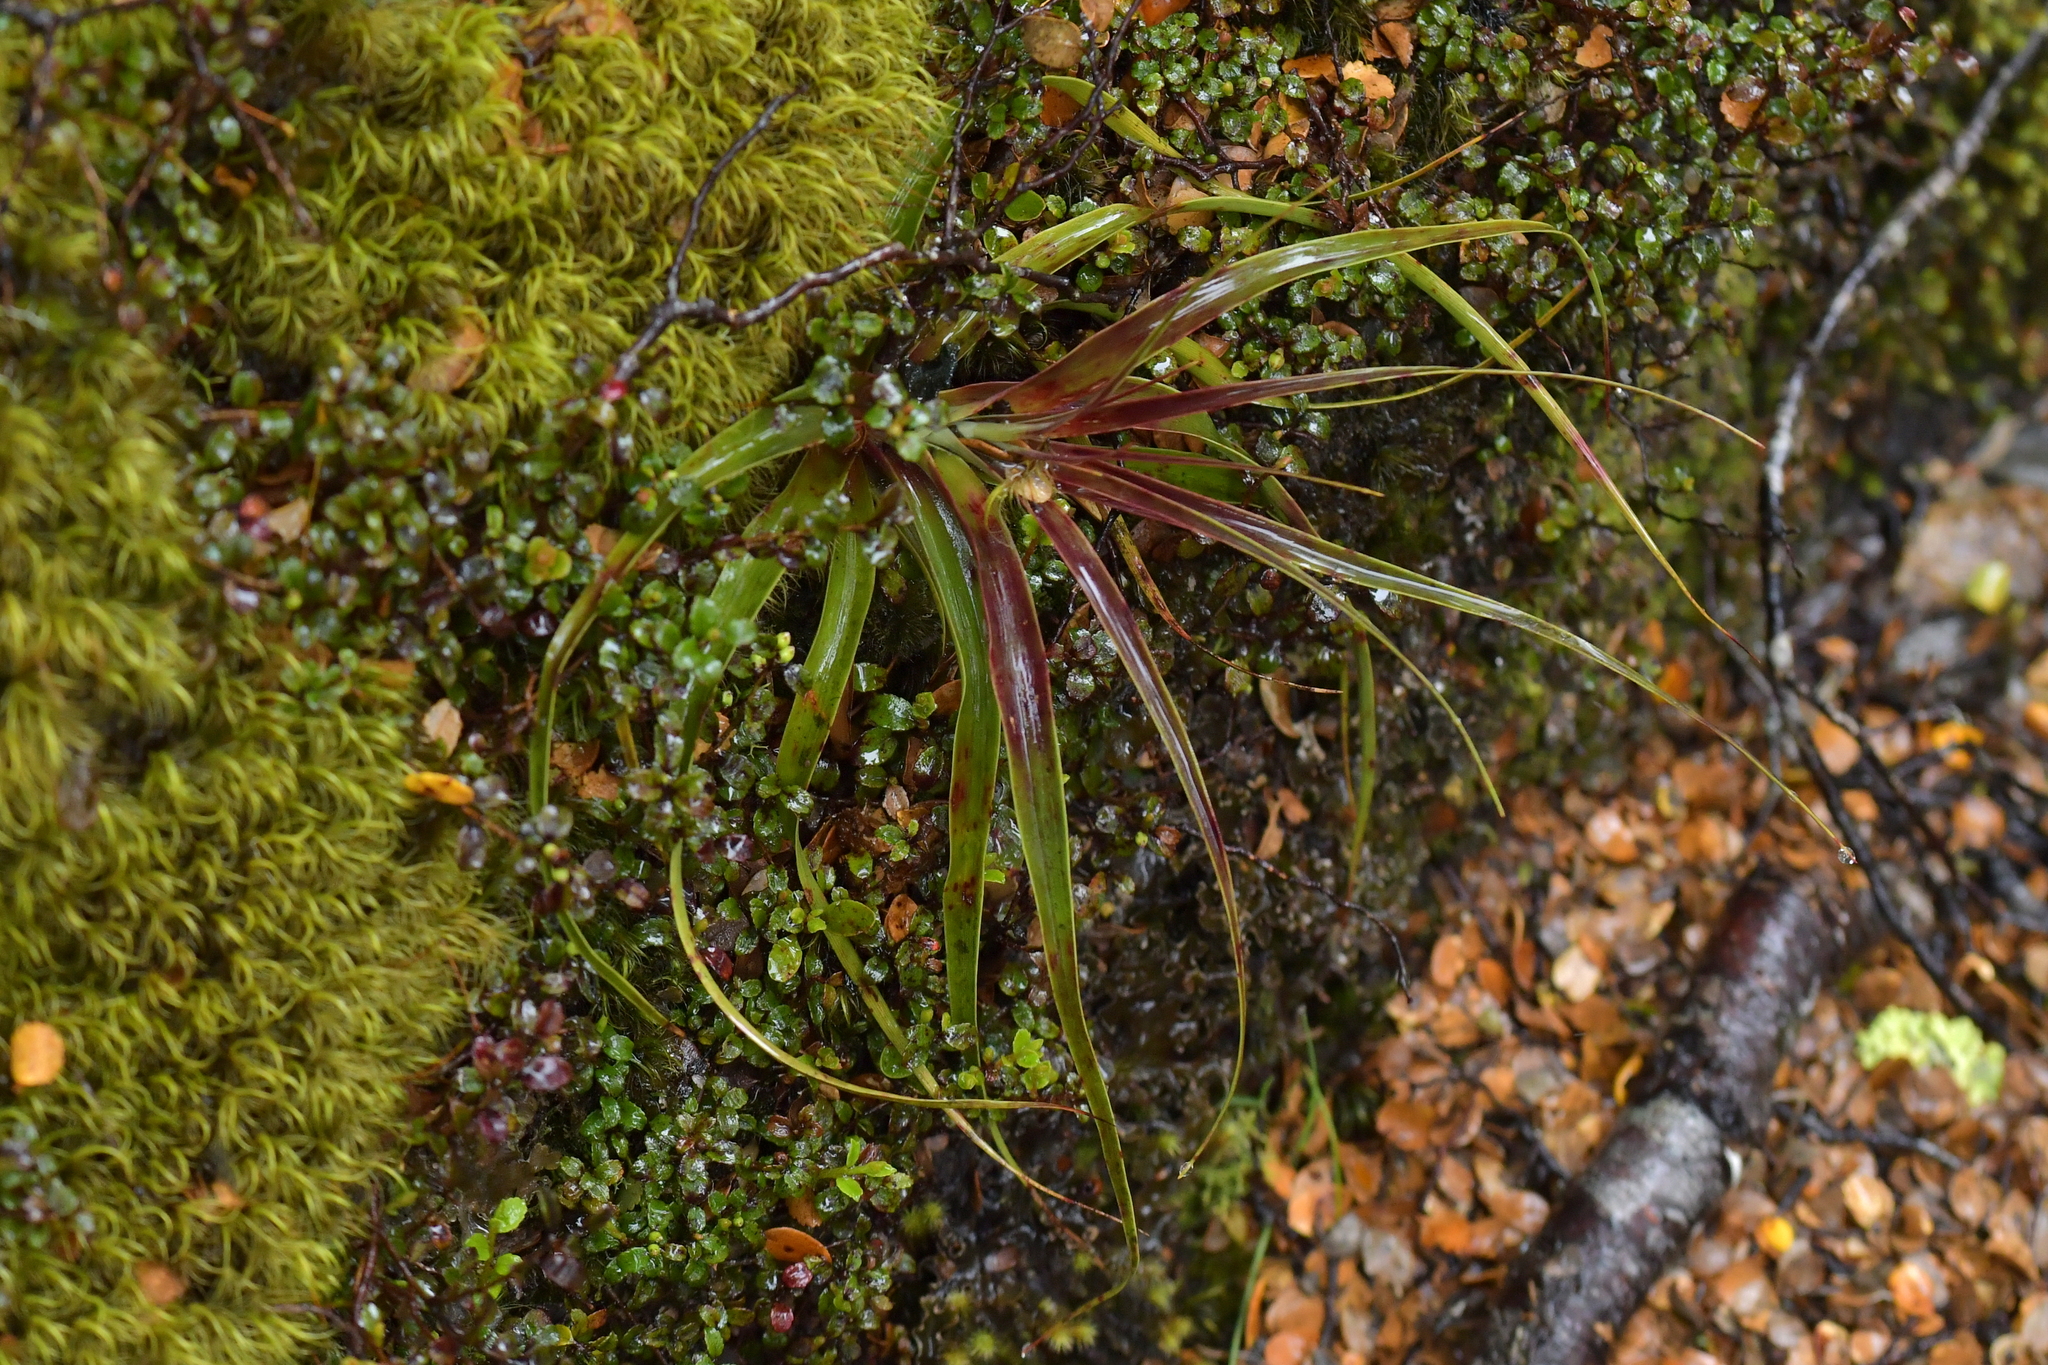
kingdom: Plantae
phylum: Tracheophyta
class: Magnoliopsida
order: Ericales
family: Ericaceae
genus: Dracophyllum
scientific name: Dracophyllum traversii
